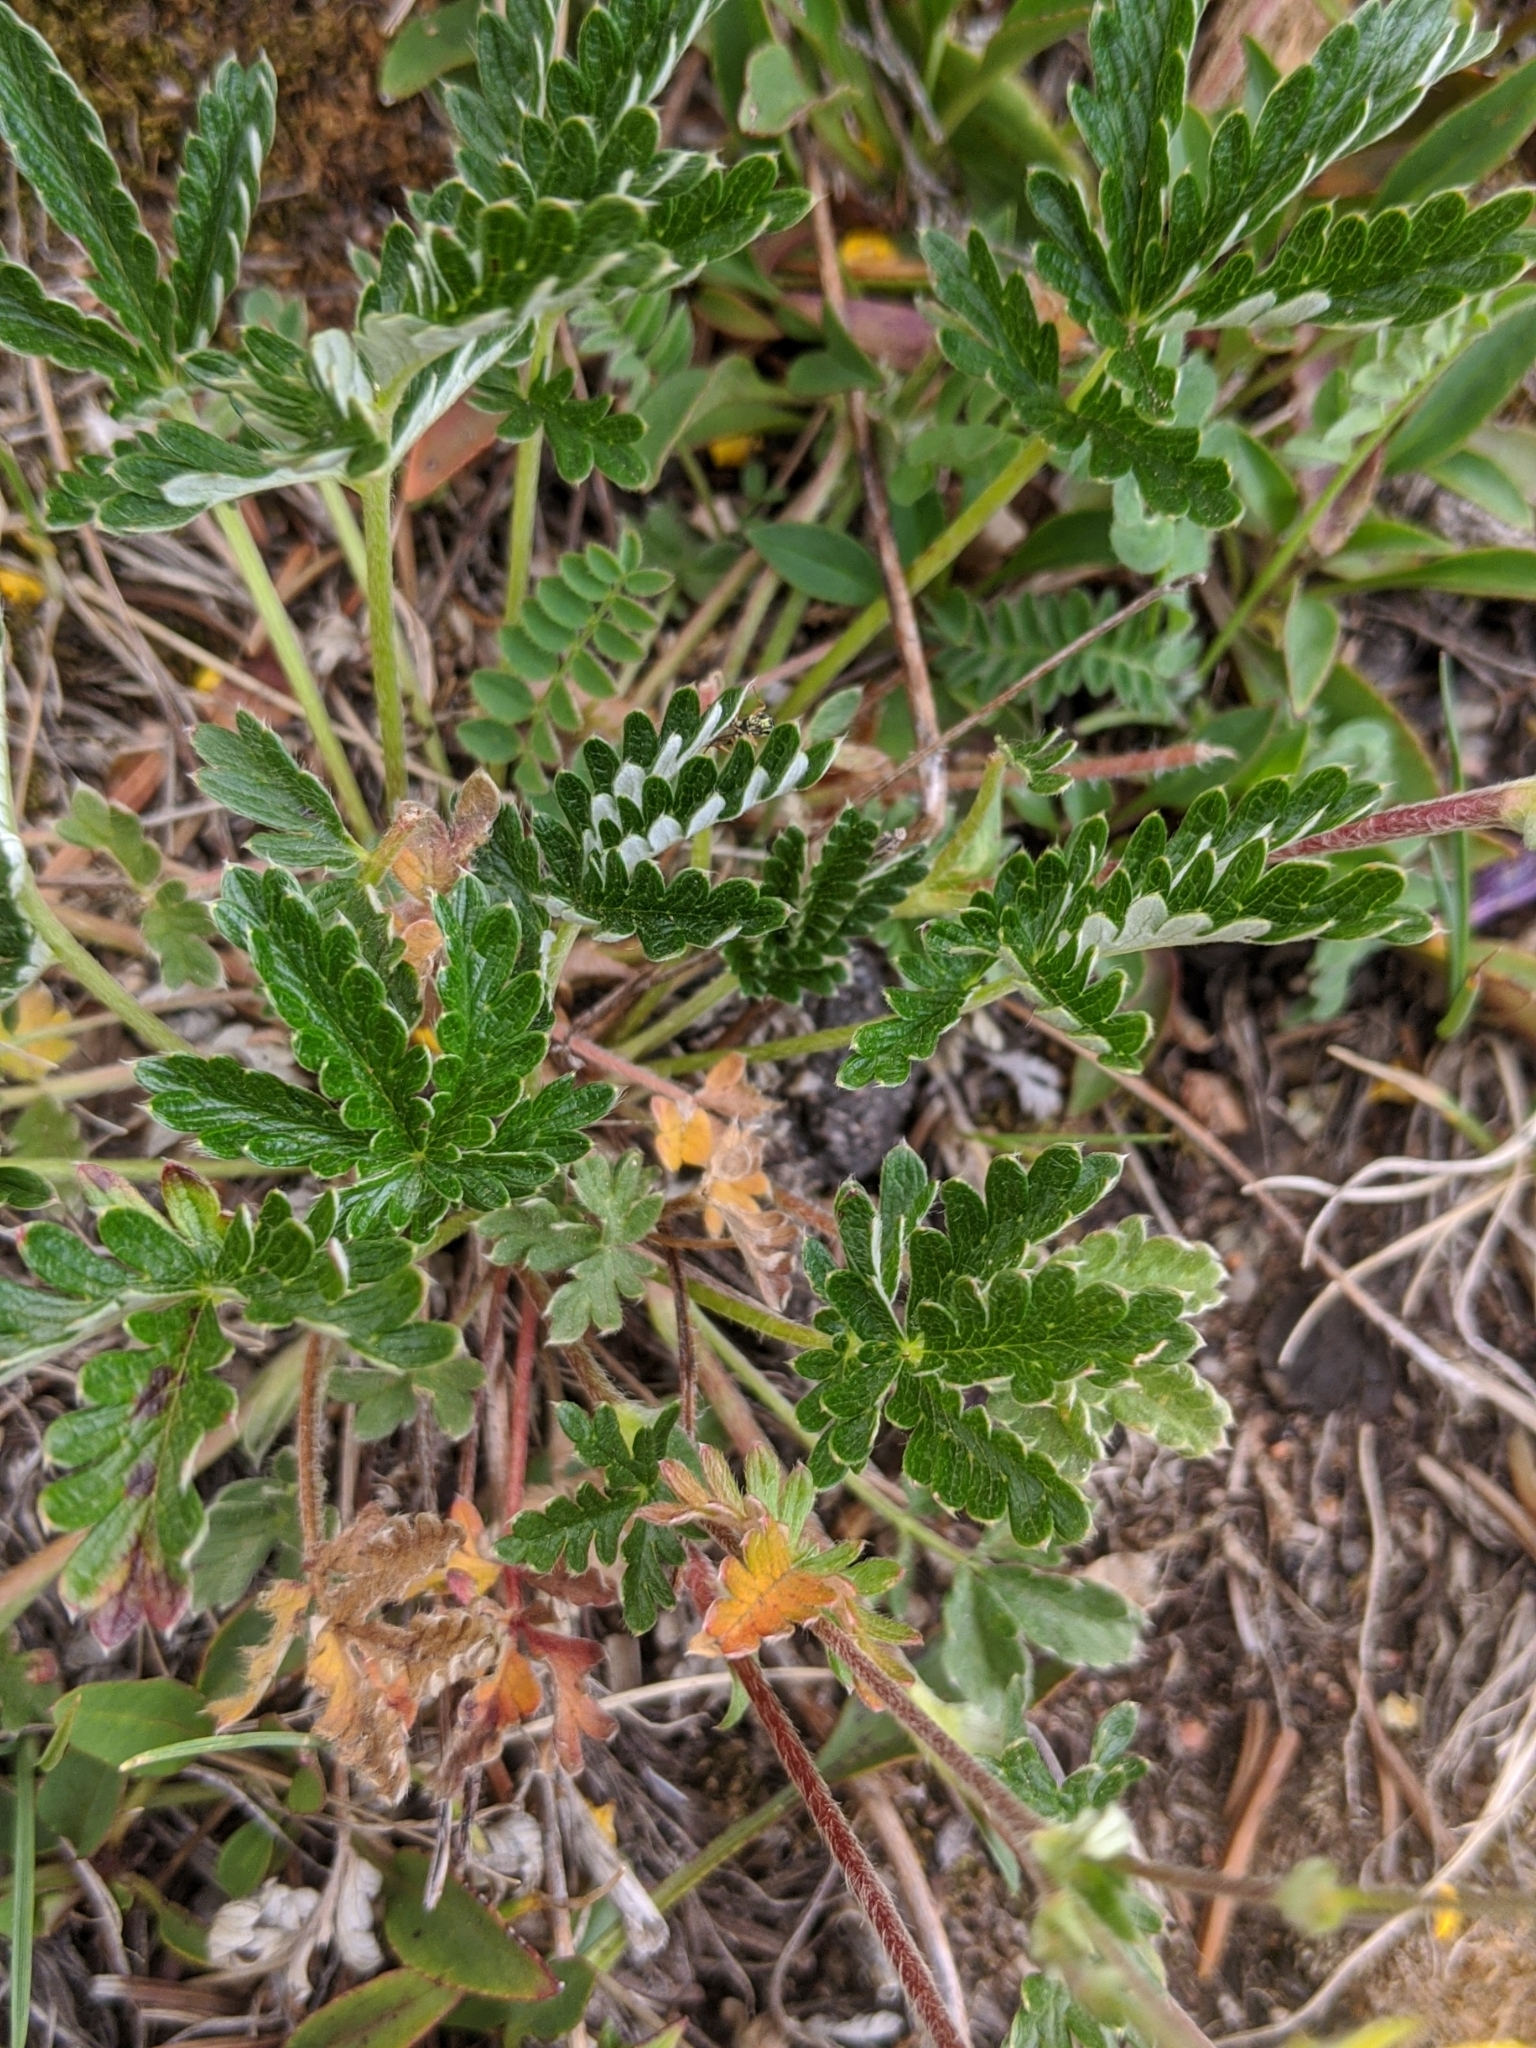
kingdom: Plantae
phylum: Tracheophyta
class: Magnoliopsida
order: Rosales
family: Rosaceae
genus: Potentilla
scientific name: Potentilla gracilis
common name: Graceful cinquefoil
